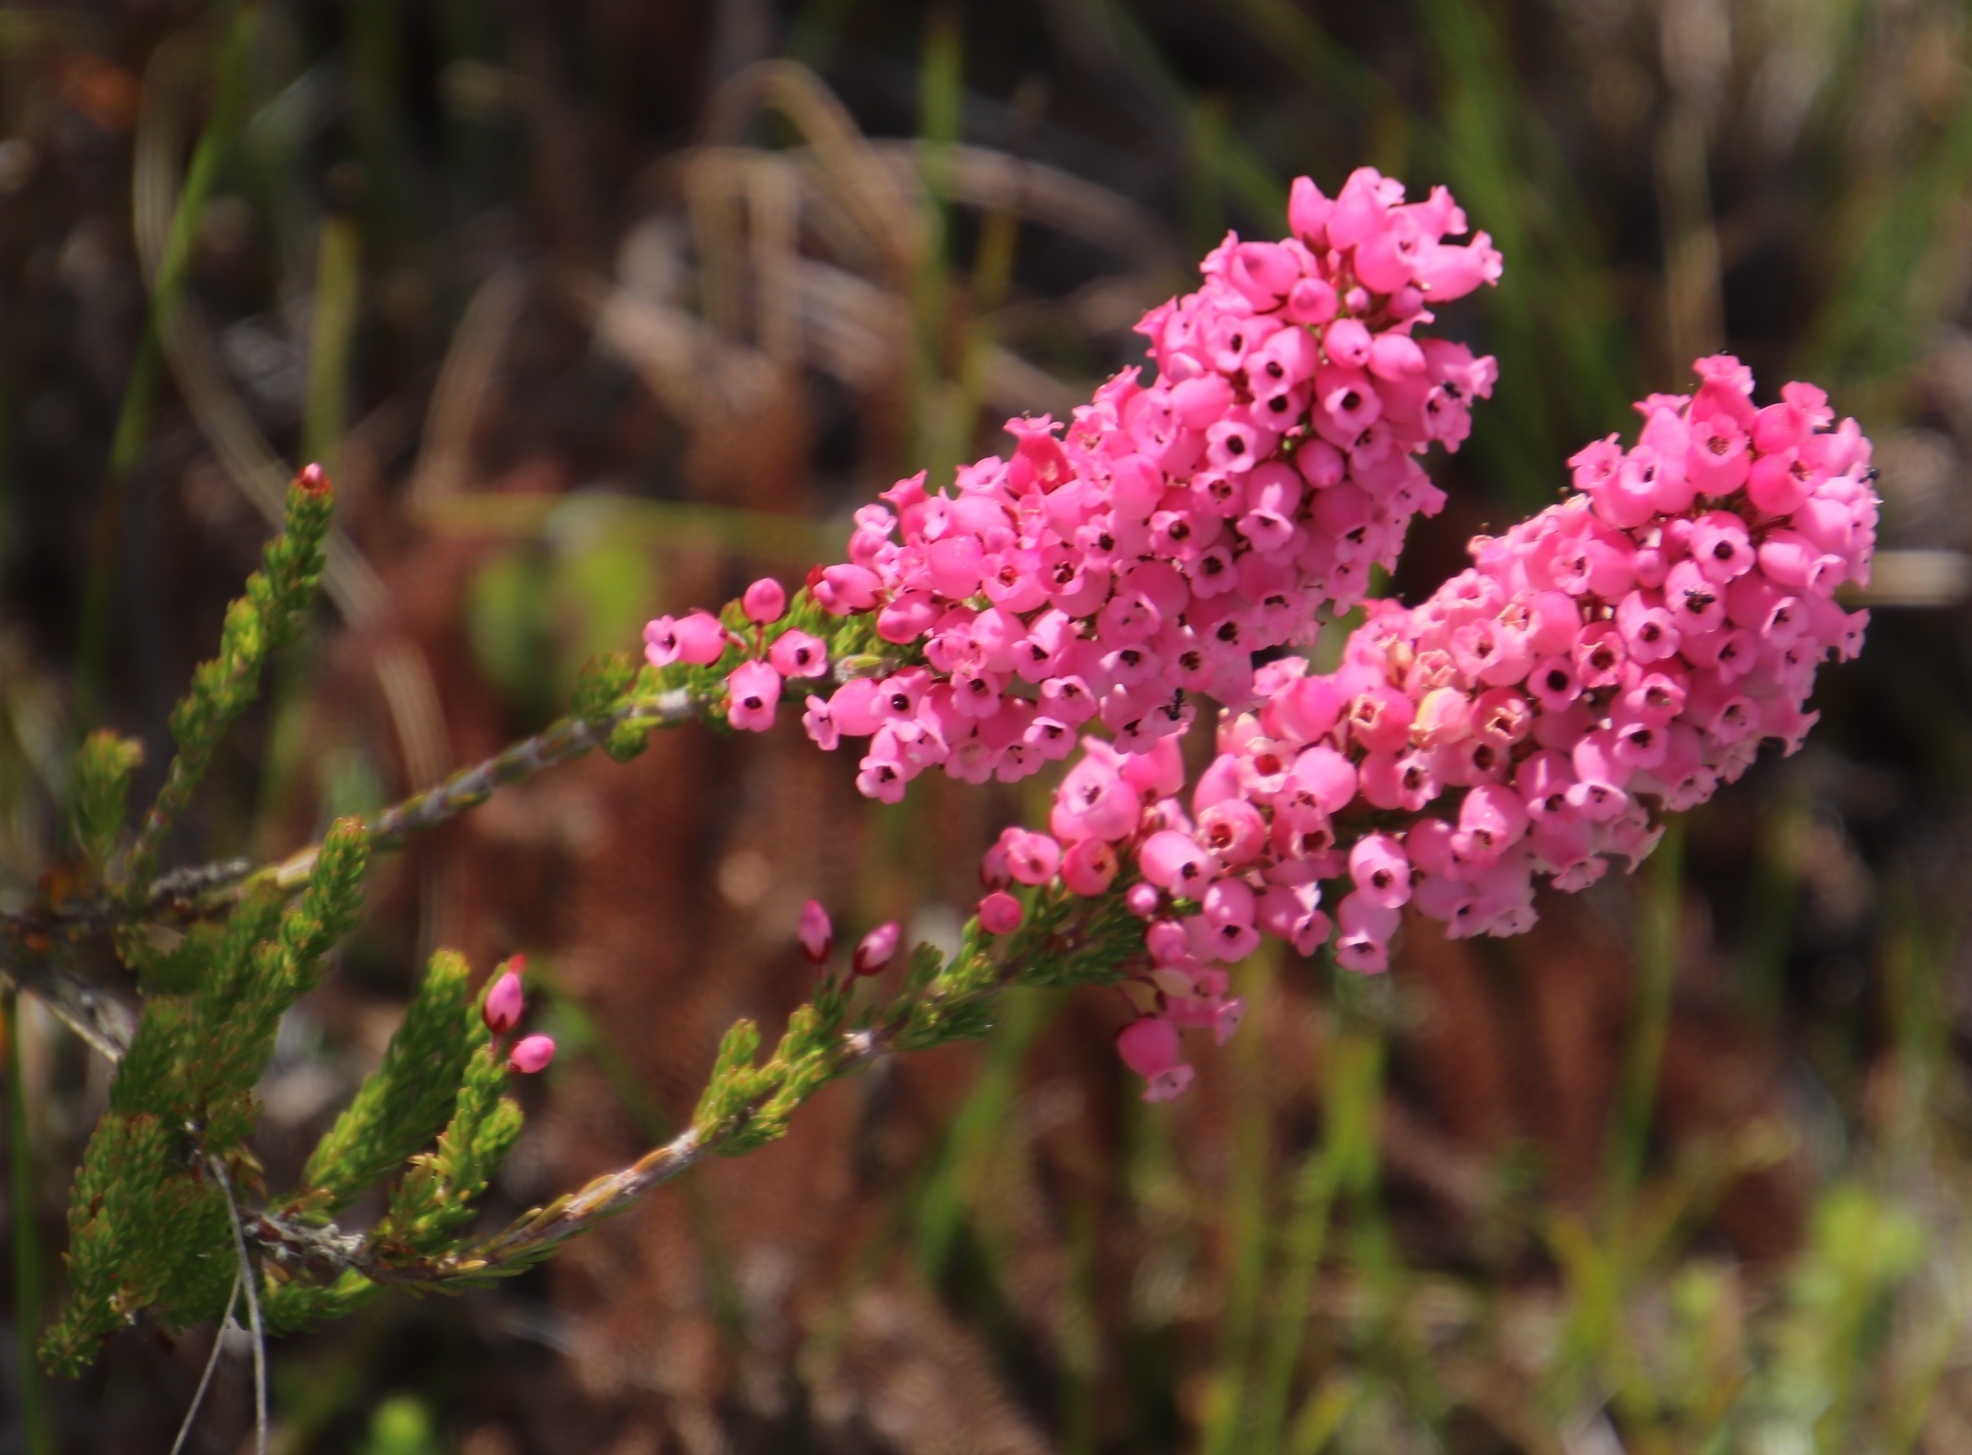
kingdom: Plantae
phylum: Tracheophyta
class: Magnoliopsida
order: Ericales
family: Ericaceae
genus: Erica
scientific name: Erica tenella
